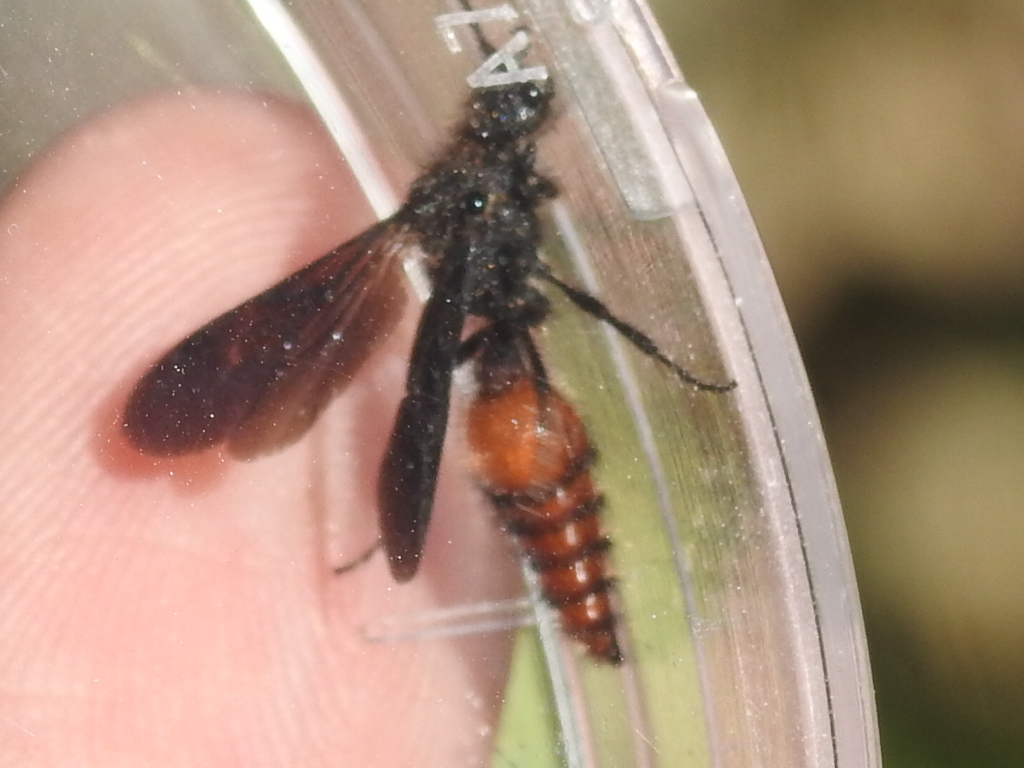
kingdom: Animalia
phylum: Arthropoda
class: Insecta
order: Hymenoptera
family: Mutillidae
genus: Dasymutilla
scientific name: Dasymutilla
